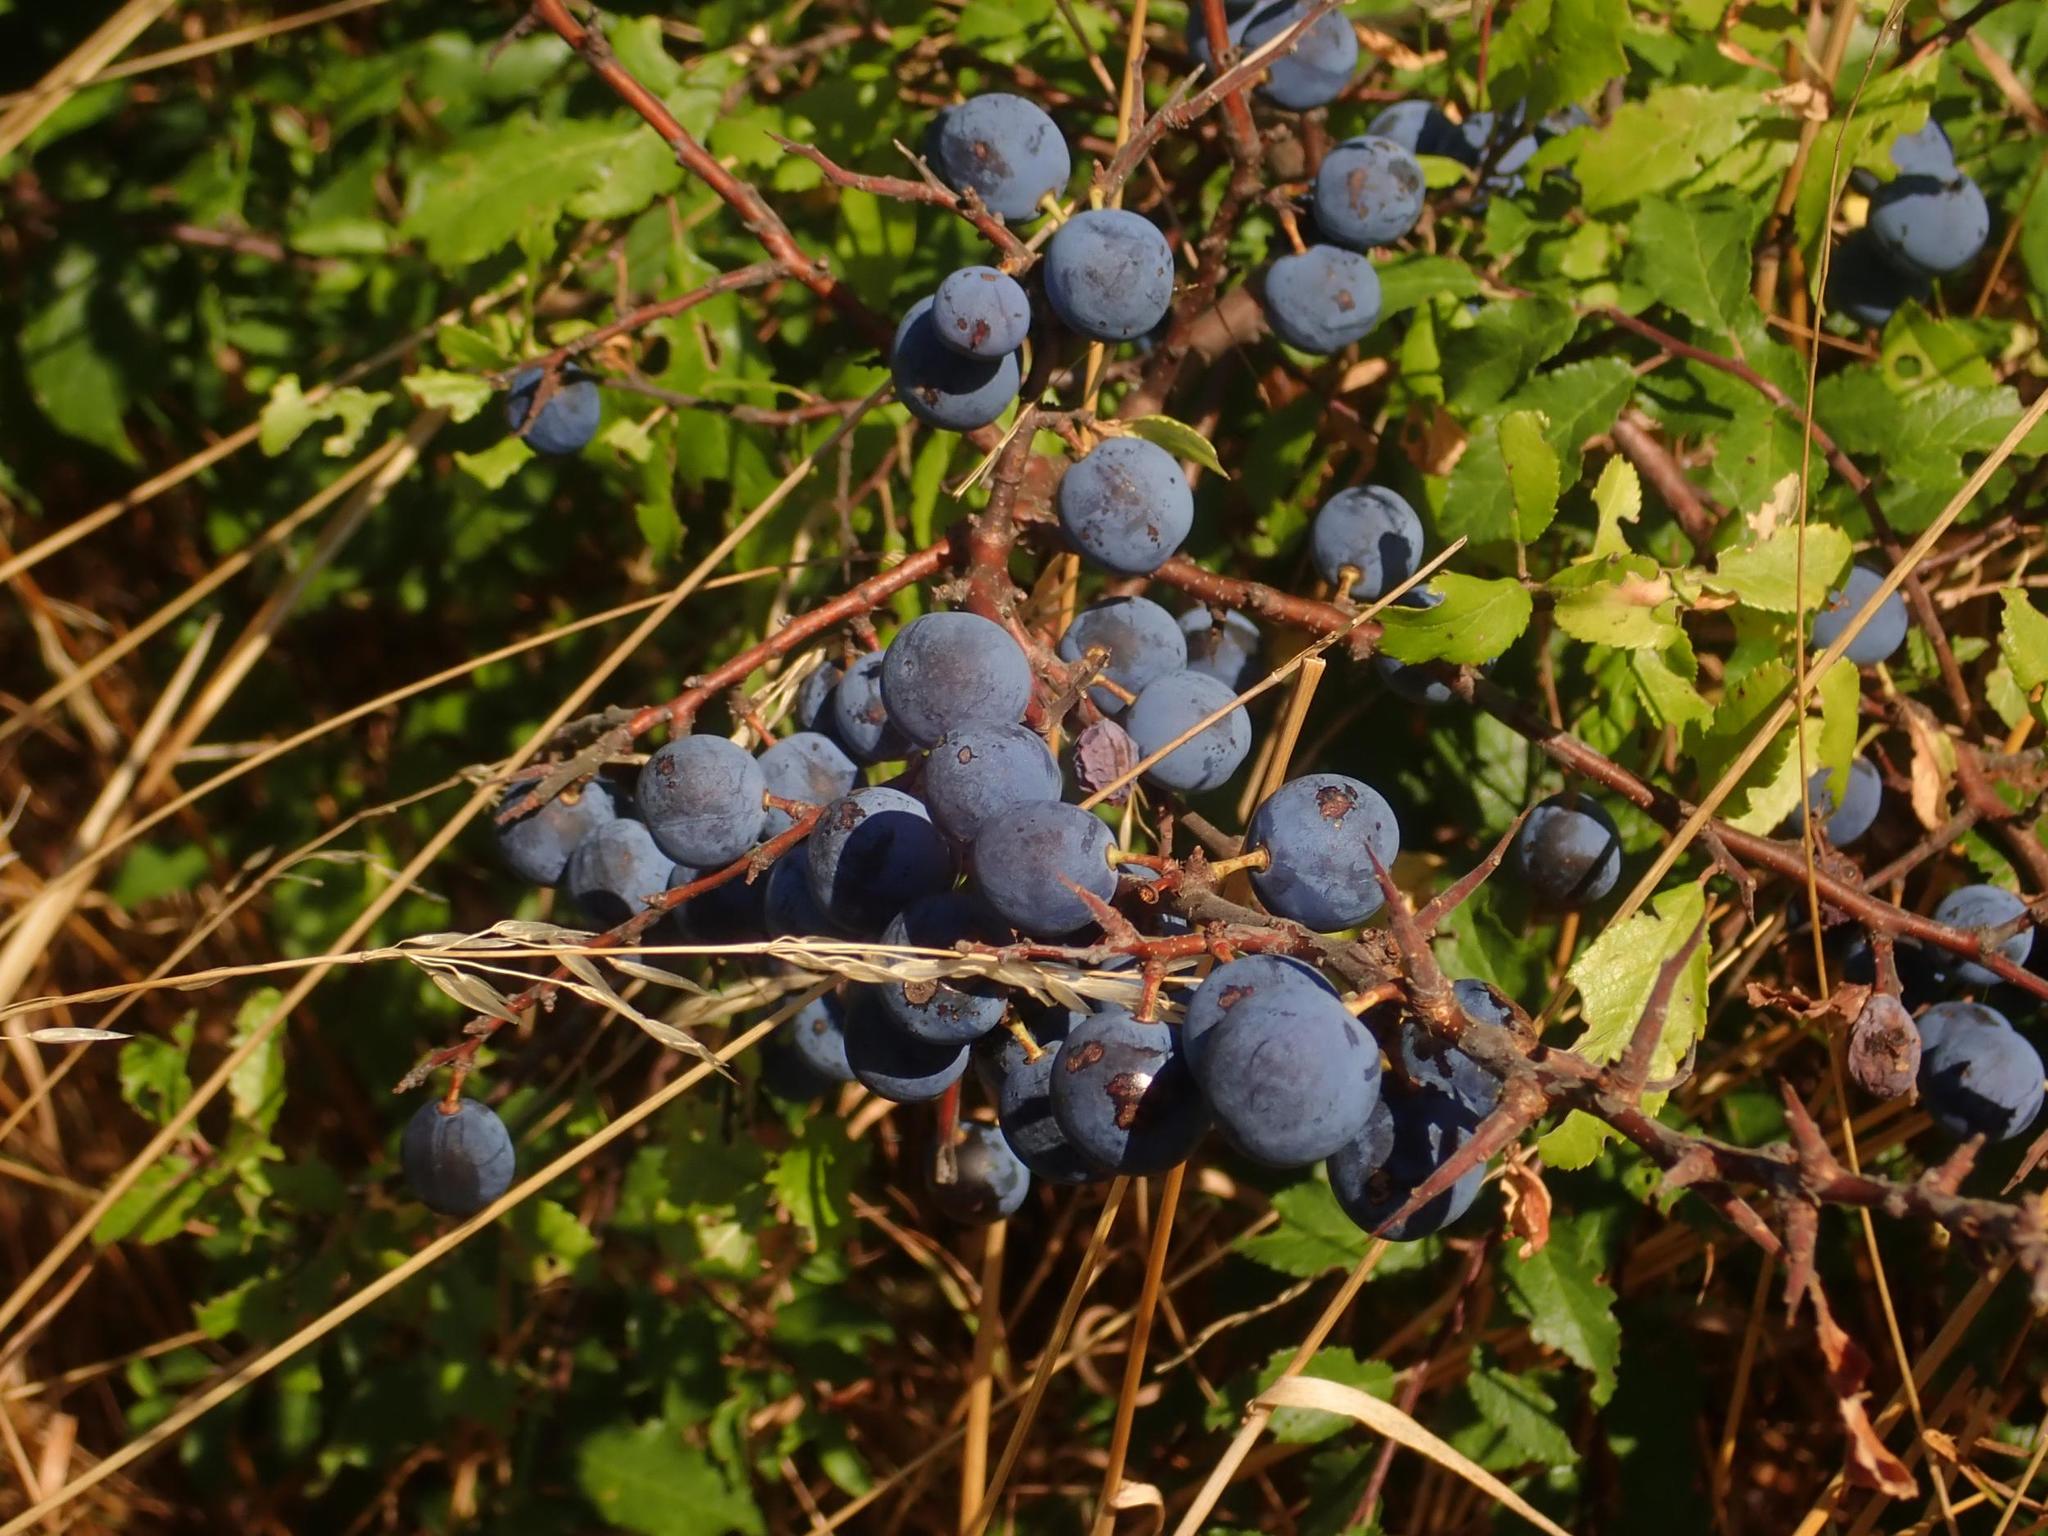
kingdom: Plantae
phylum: Tracheophyta
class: Magnoliopsida
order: Rosales
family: Rosaceae
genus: Prunus
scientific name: Prunus spinosa
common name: Blackthorn
